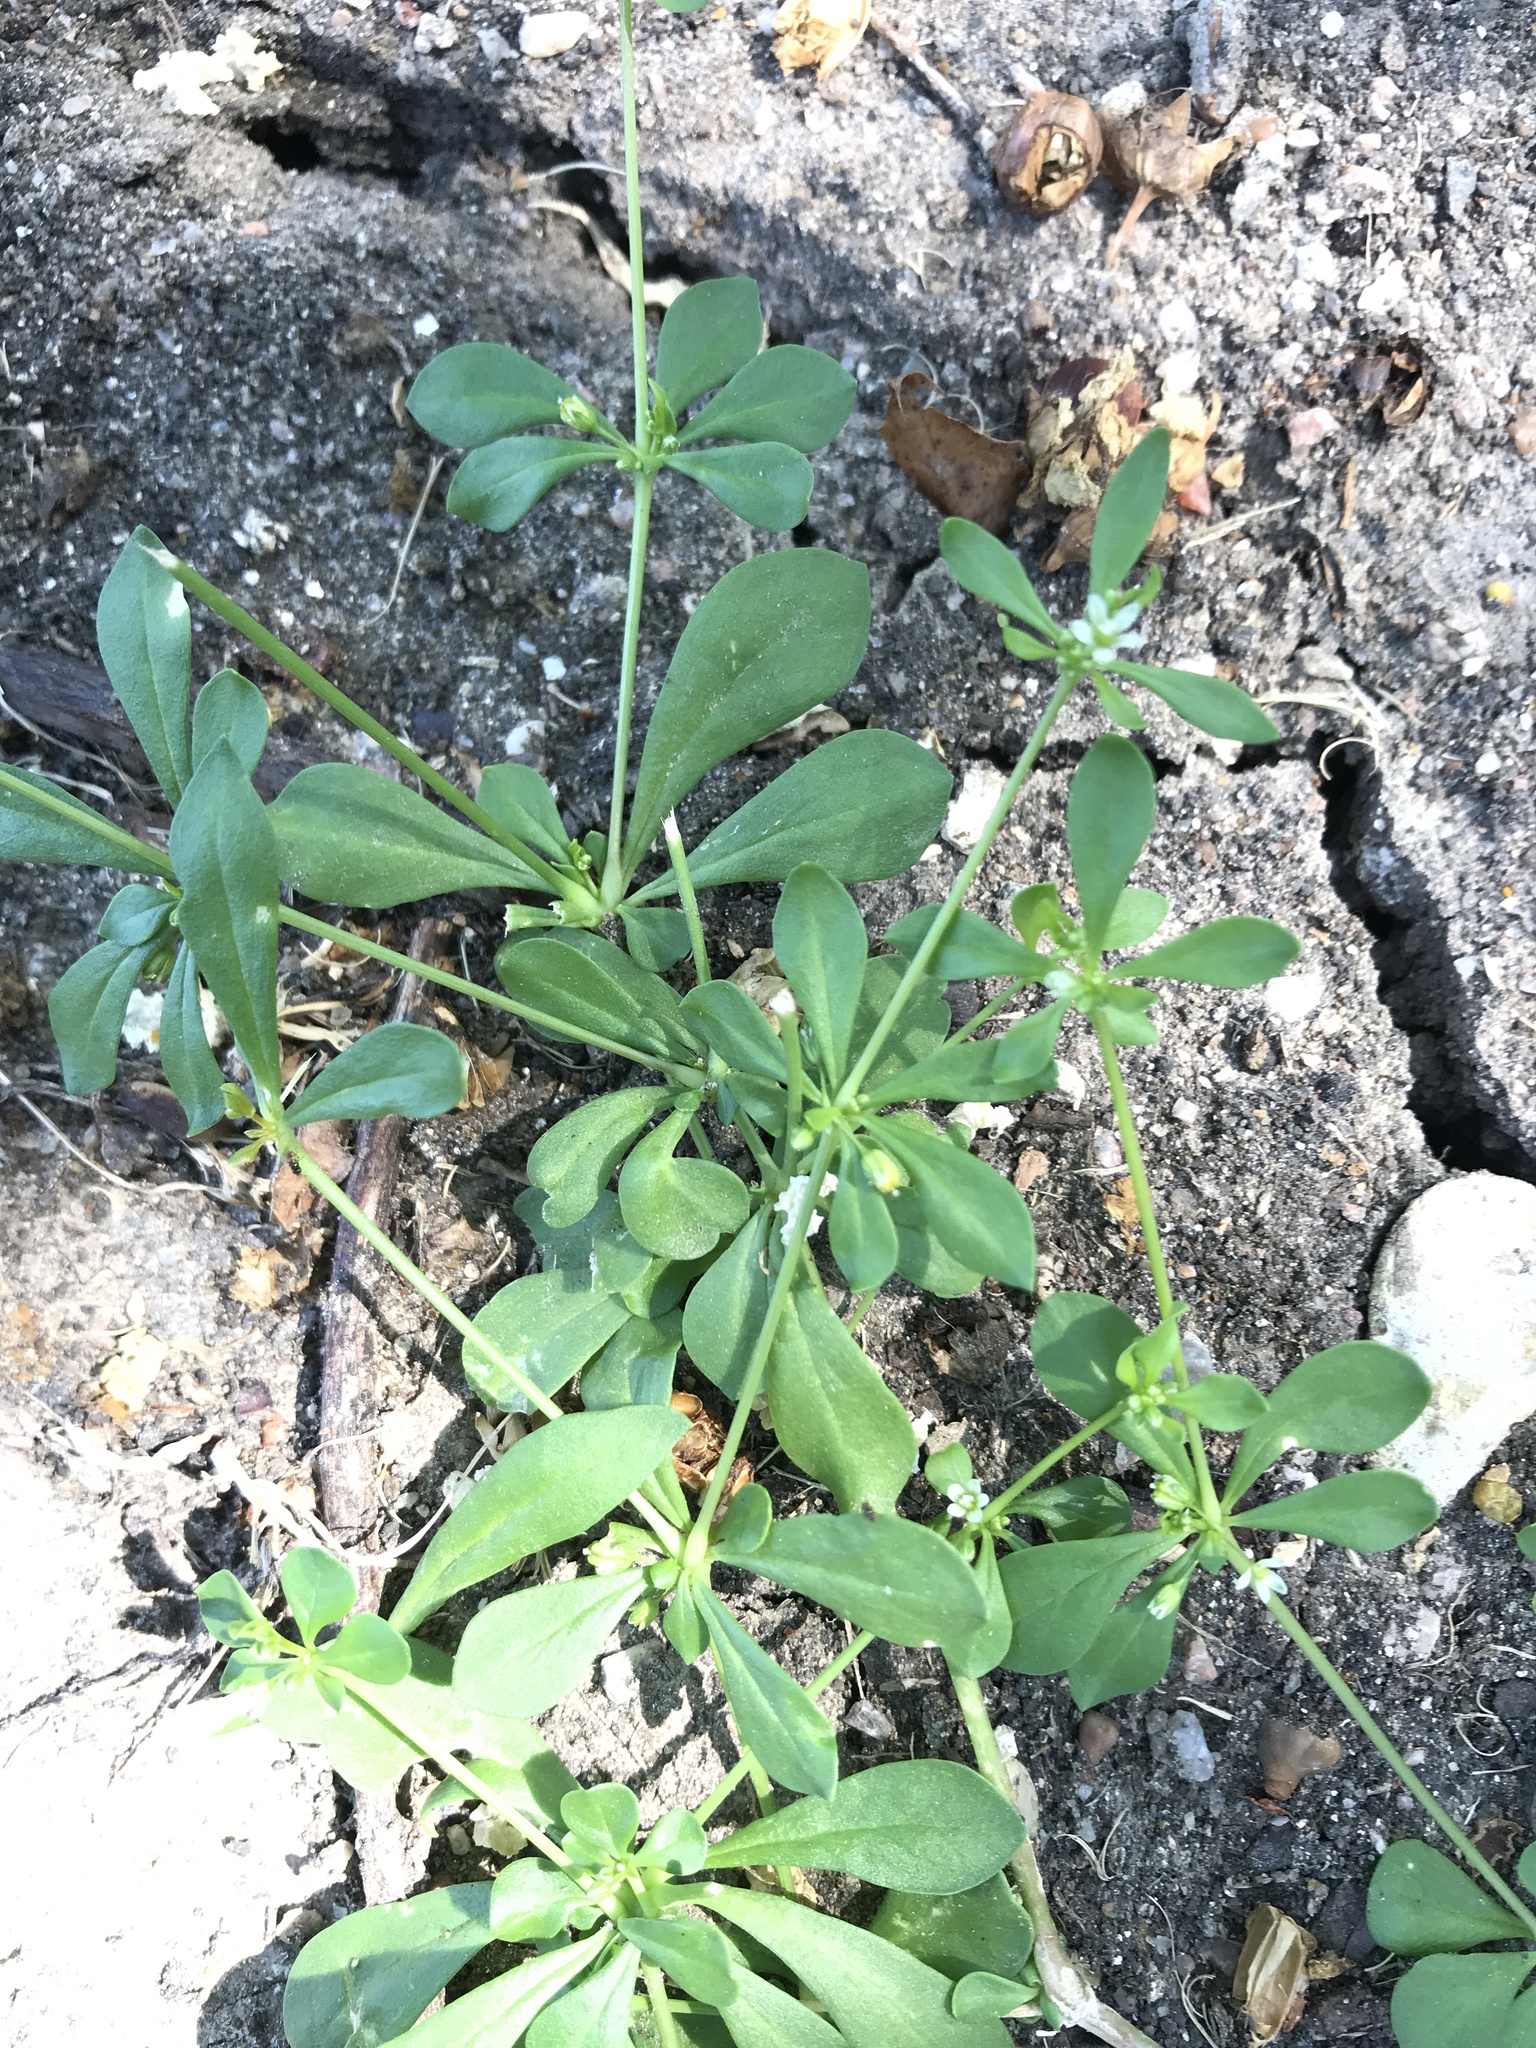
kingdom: Plantae
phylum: Tracheophyta
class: Magnoliopsida
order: Caryophyllales
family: Molluginaceae
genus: Mollugo
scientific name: Mollugo verticillata
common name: Green carpetweed
